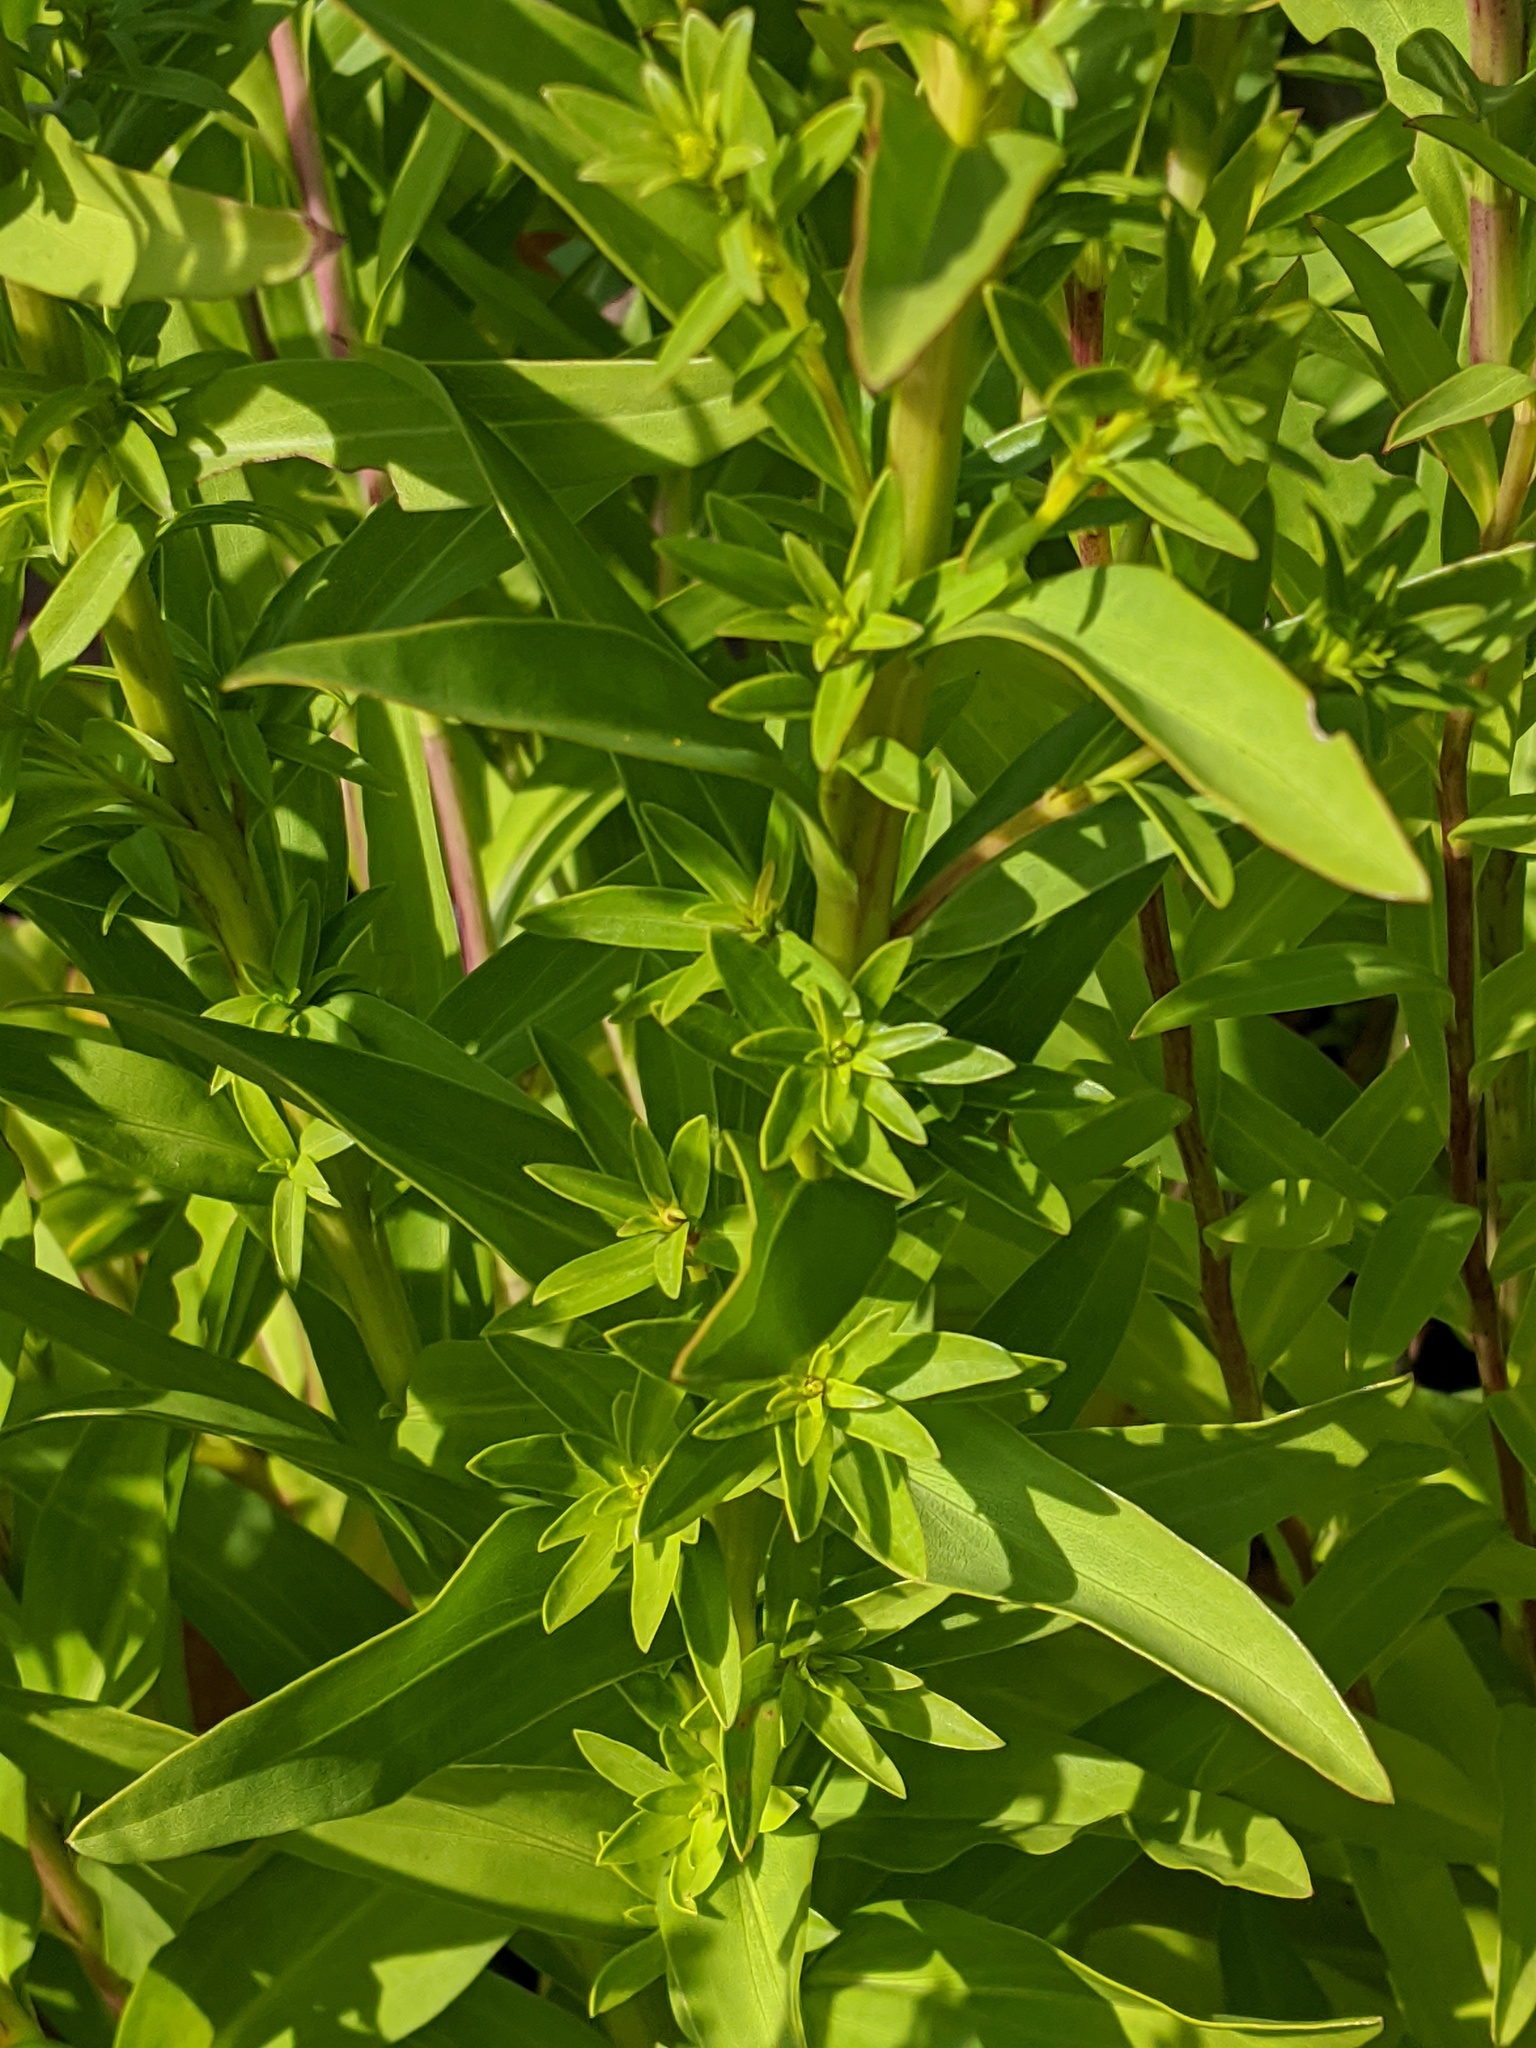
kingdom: Plantae
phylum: Tracheophyta
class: Magnoliopsida
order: Asterales
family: Asteraceae
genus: Solidago
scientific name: Solidago sempervirens
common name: Salt-marsh goldenrod
